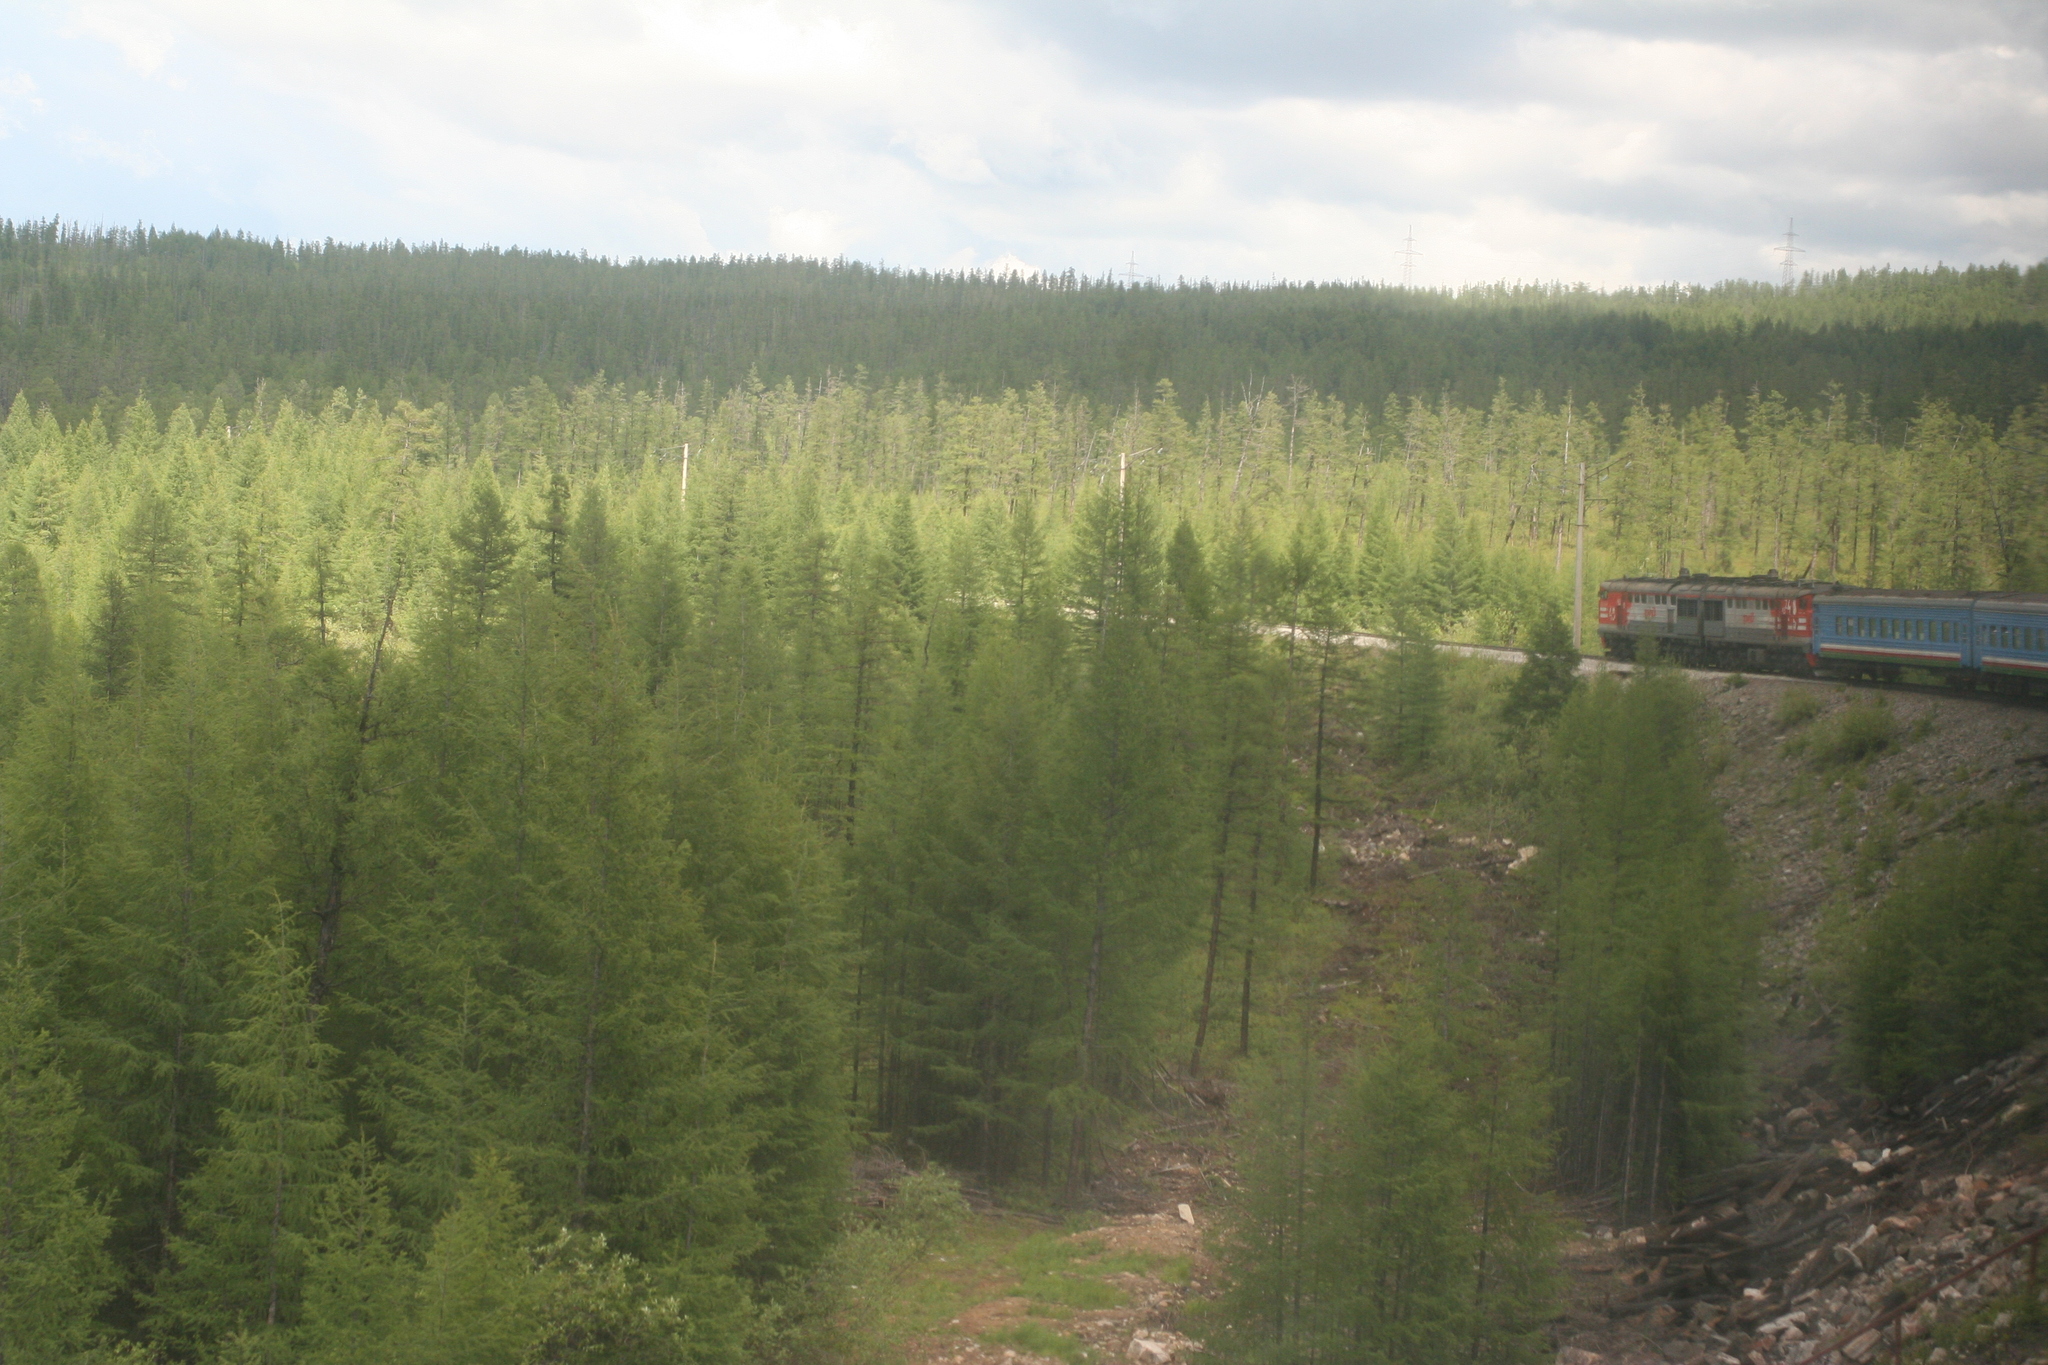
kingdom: Plantae
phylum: Tracheophyta
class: Pinopsida
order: Pinales
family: Pinaceae
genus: Larix
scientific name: Larix gmelinii
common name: Dahurian larch
